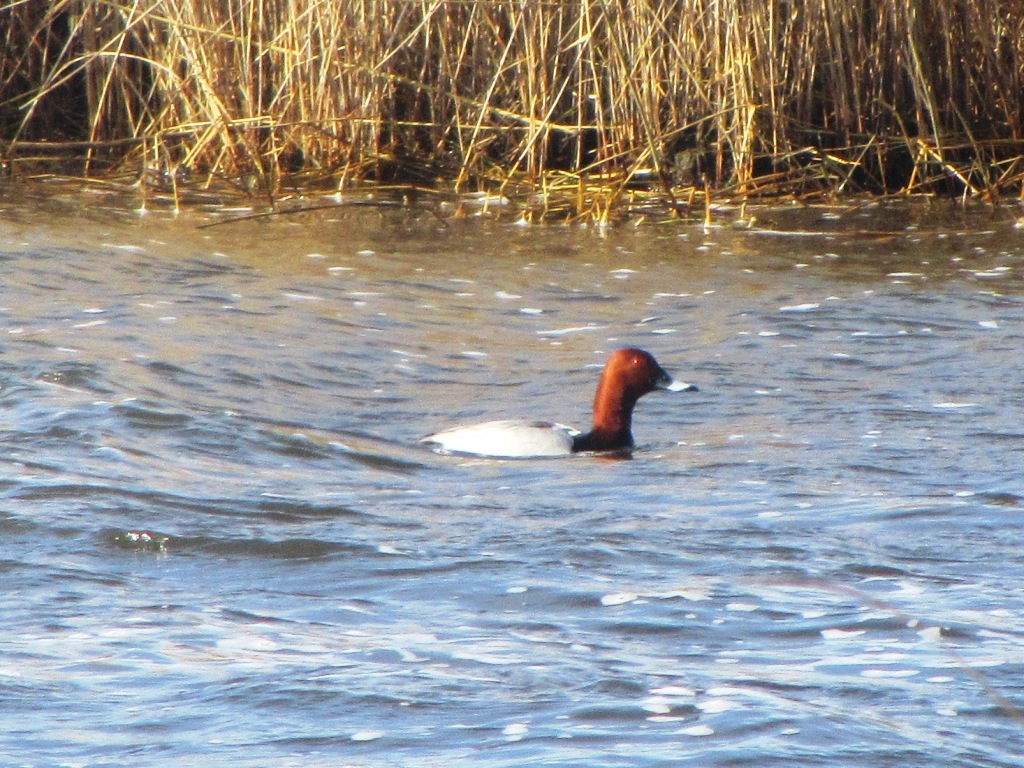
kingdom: Animalia
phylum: Chordata
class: Aves
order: Anseriformes
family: Anatidae
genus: Aythya
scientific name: Aythya ferina
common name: Common pochard
